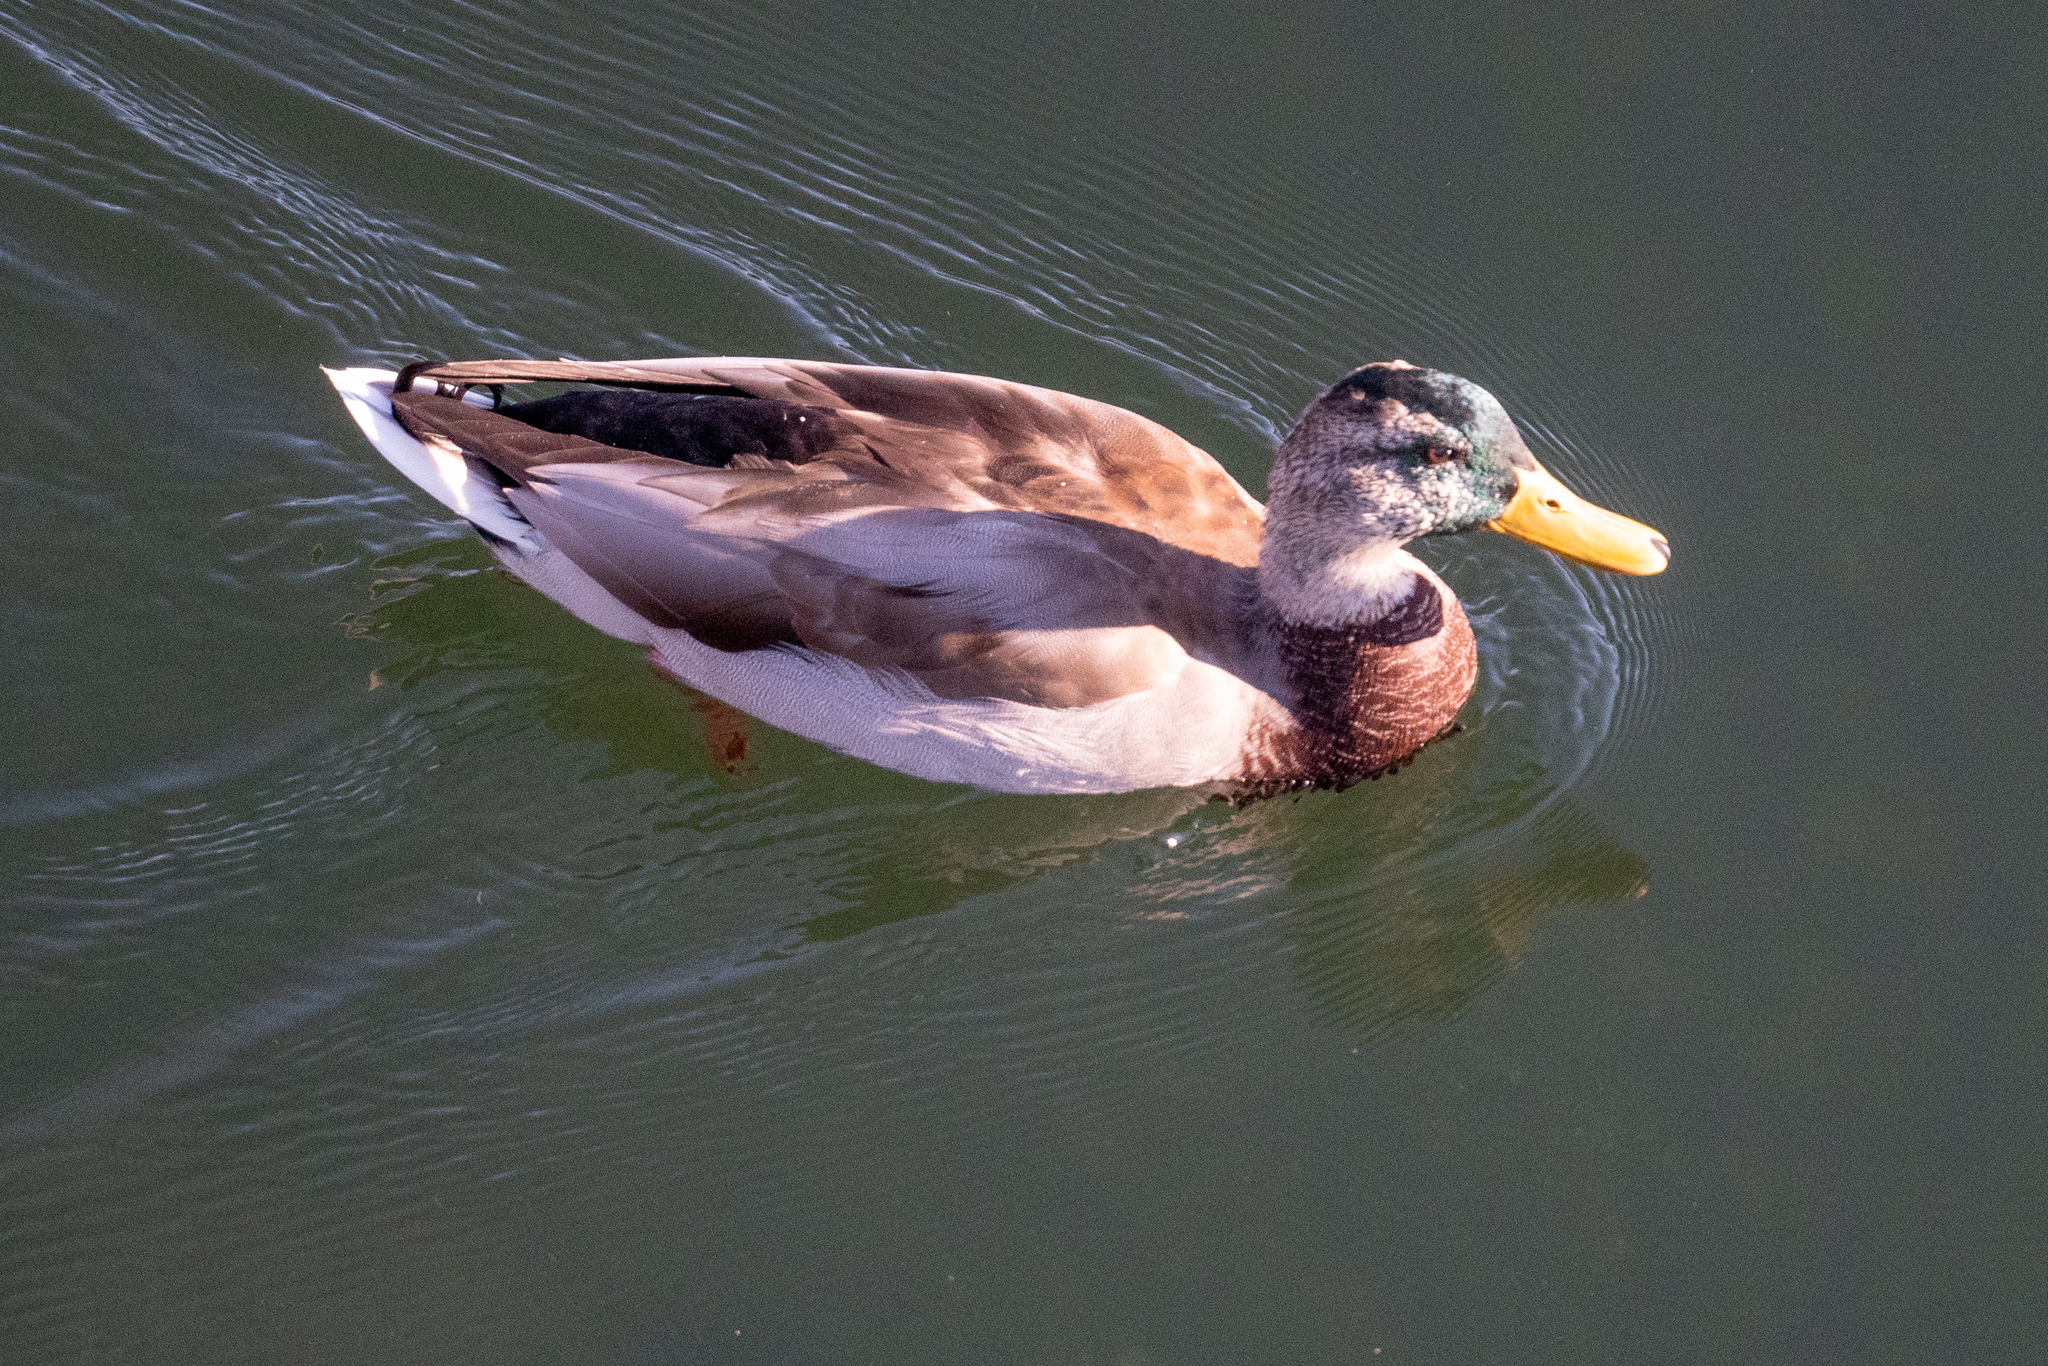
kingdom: Animalia
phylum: Chordata
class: Aves
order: Anseriformes
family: Anatidae
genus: Anas
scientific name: Anas platyrhynchos
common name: Mallard
